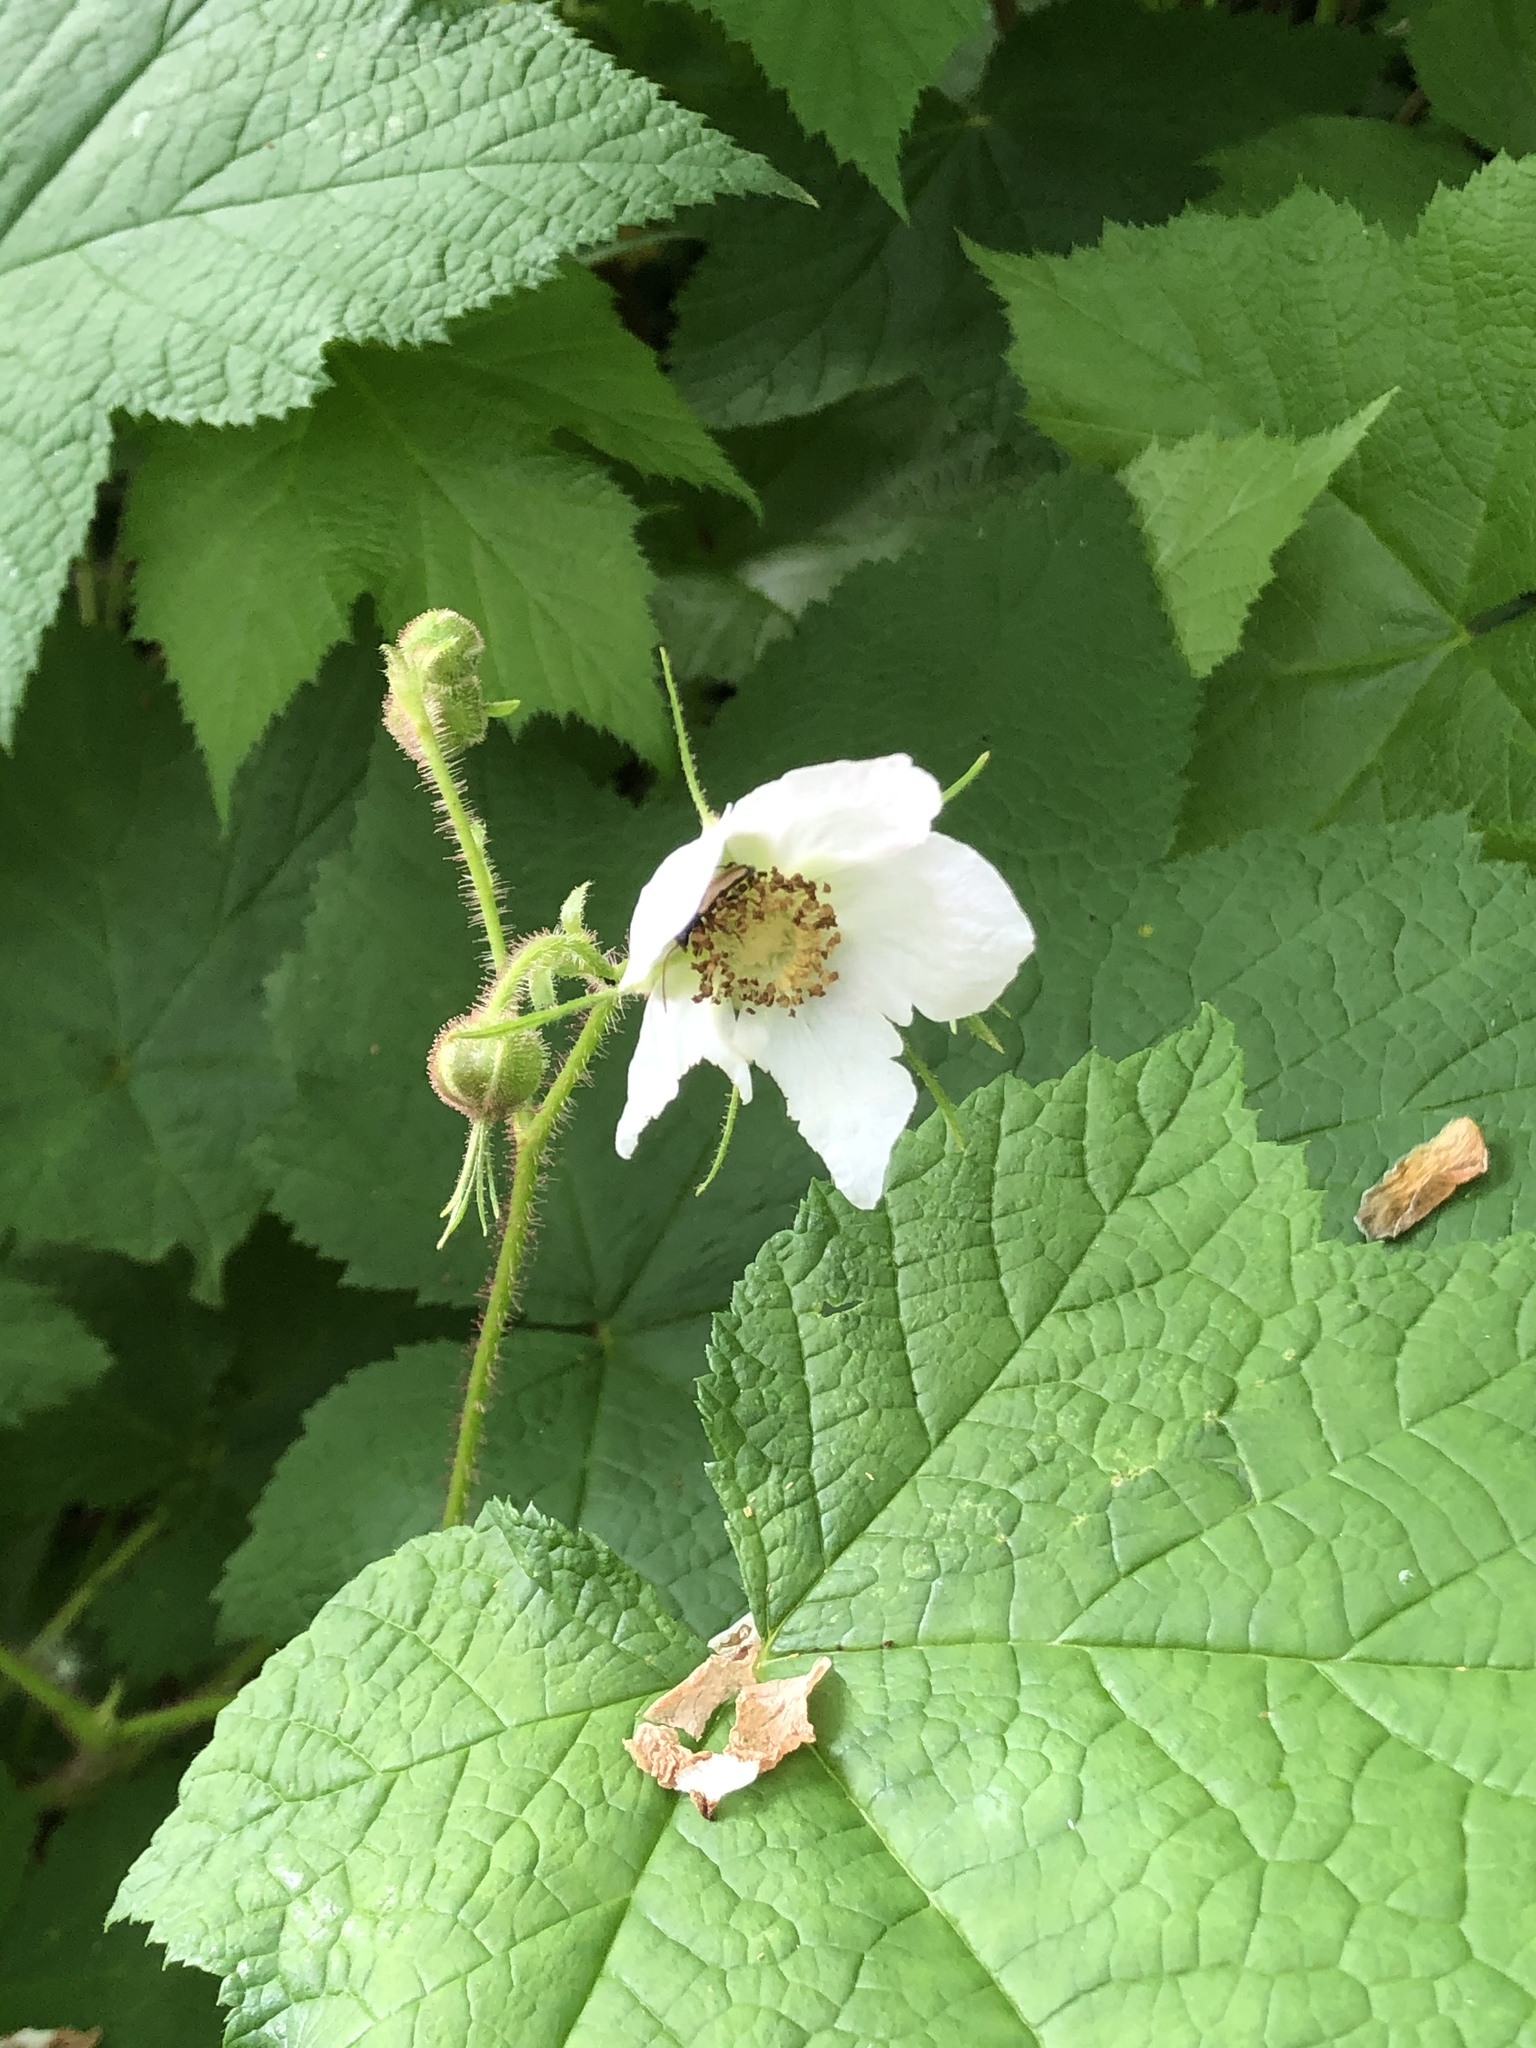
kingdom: Plantae
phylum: Tracheophyta
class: Magnoliopsida
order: Rosales
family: Rosaceae
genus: Rubus
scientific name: Rubus parviflorus
